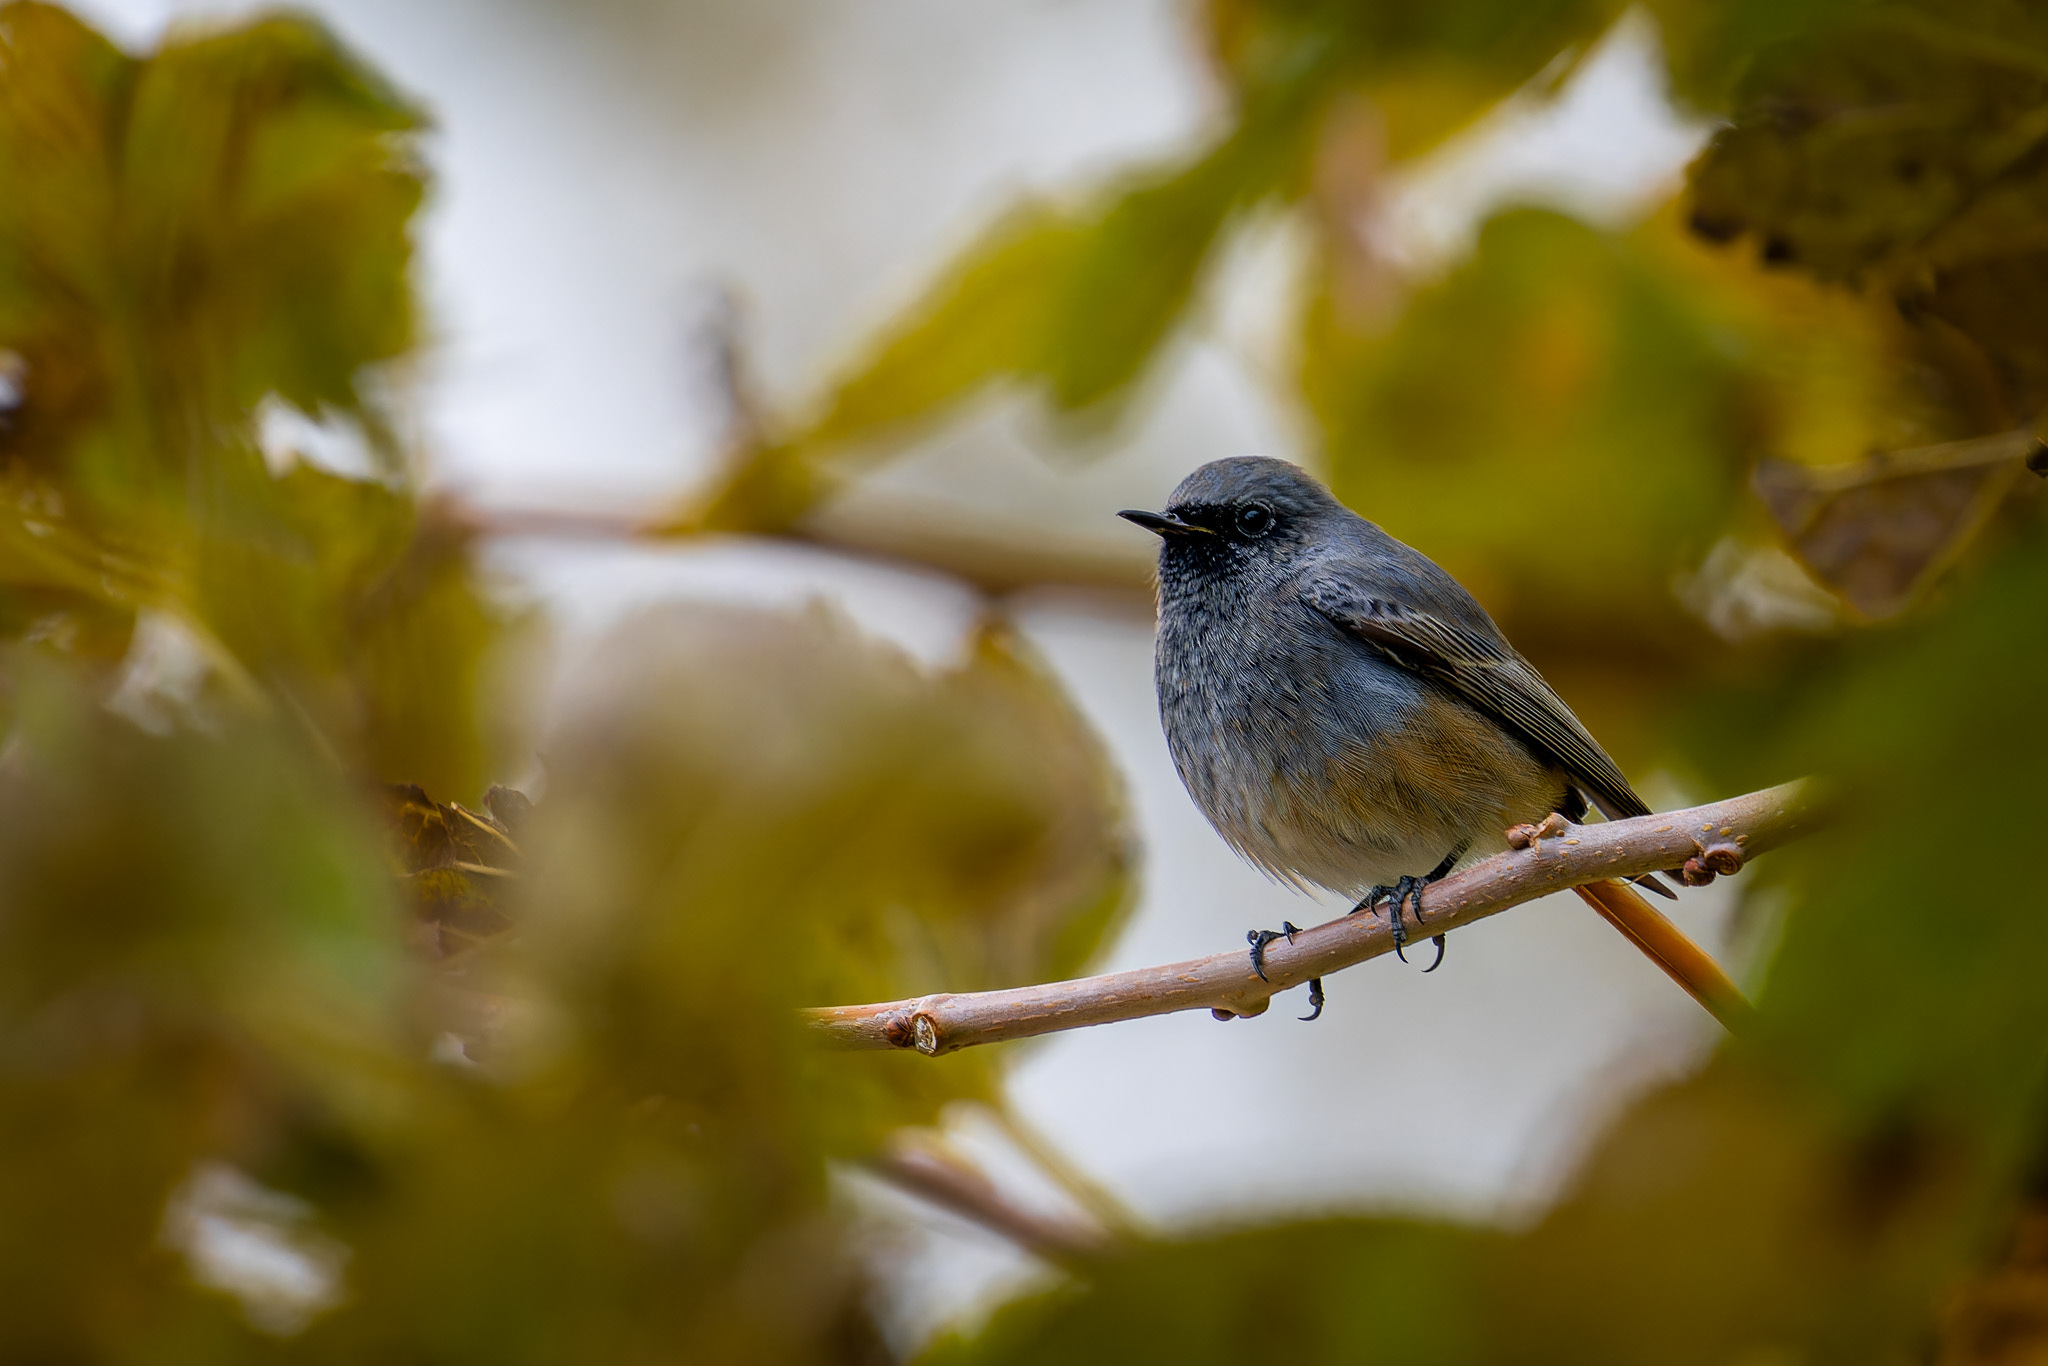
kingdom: Animalia
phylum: Chordata
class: Aves
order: Passeriformes
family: Muscicapidae
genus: Phoenicurus
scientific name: Phoenicurus ochruros
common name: Black redstart
